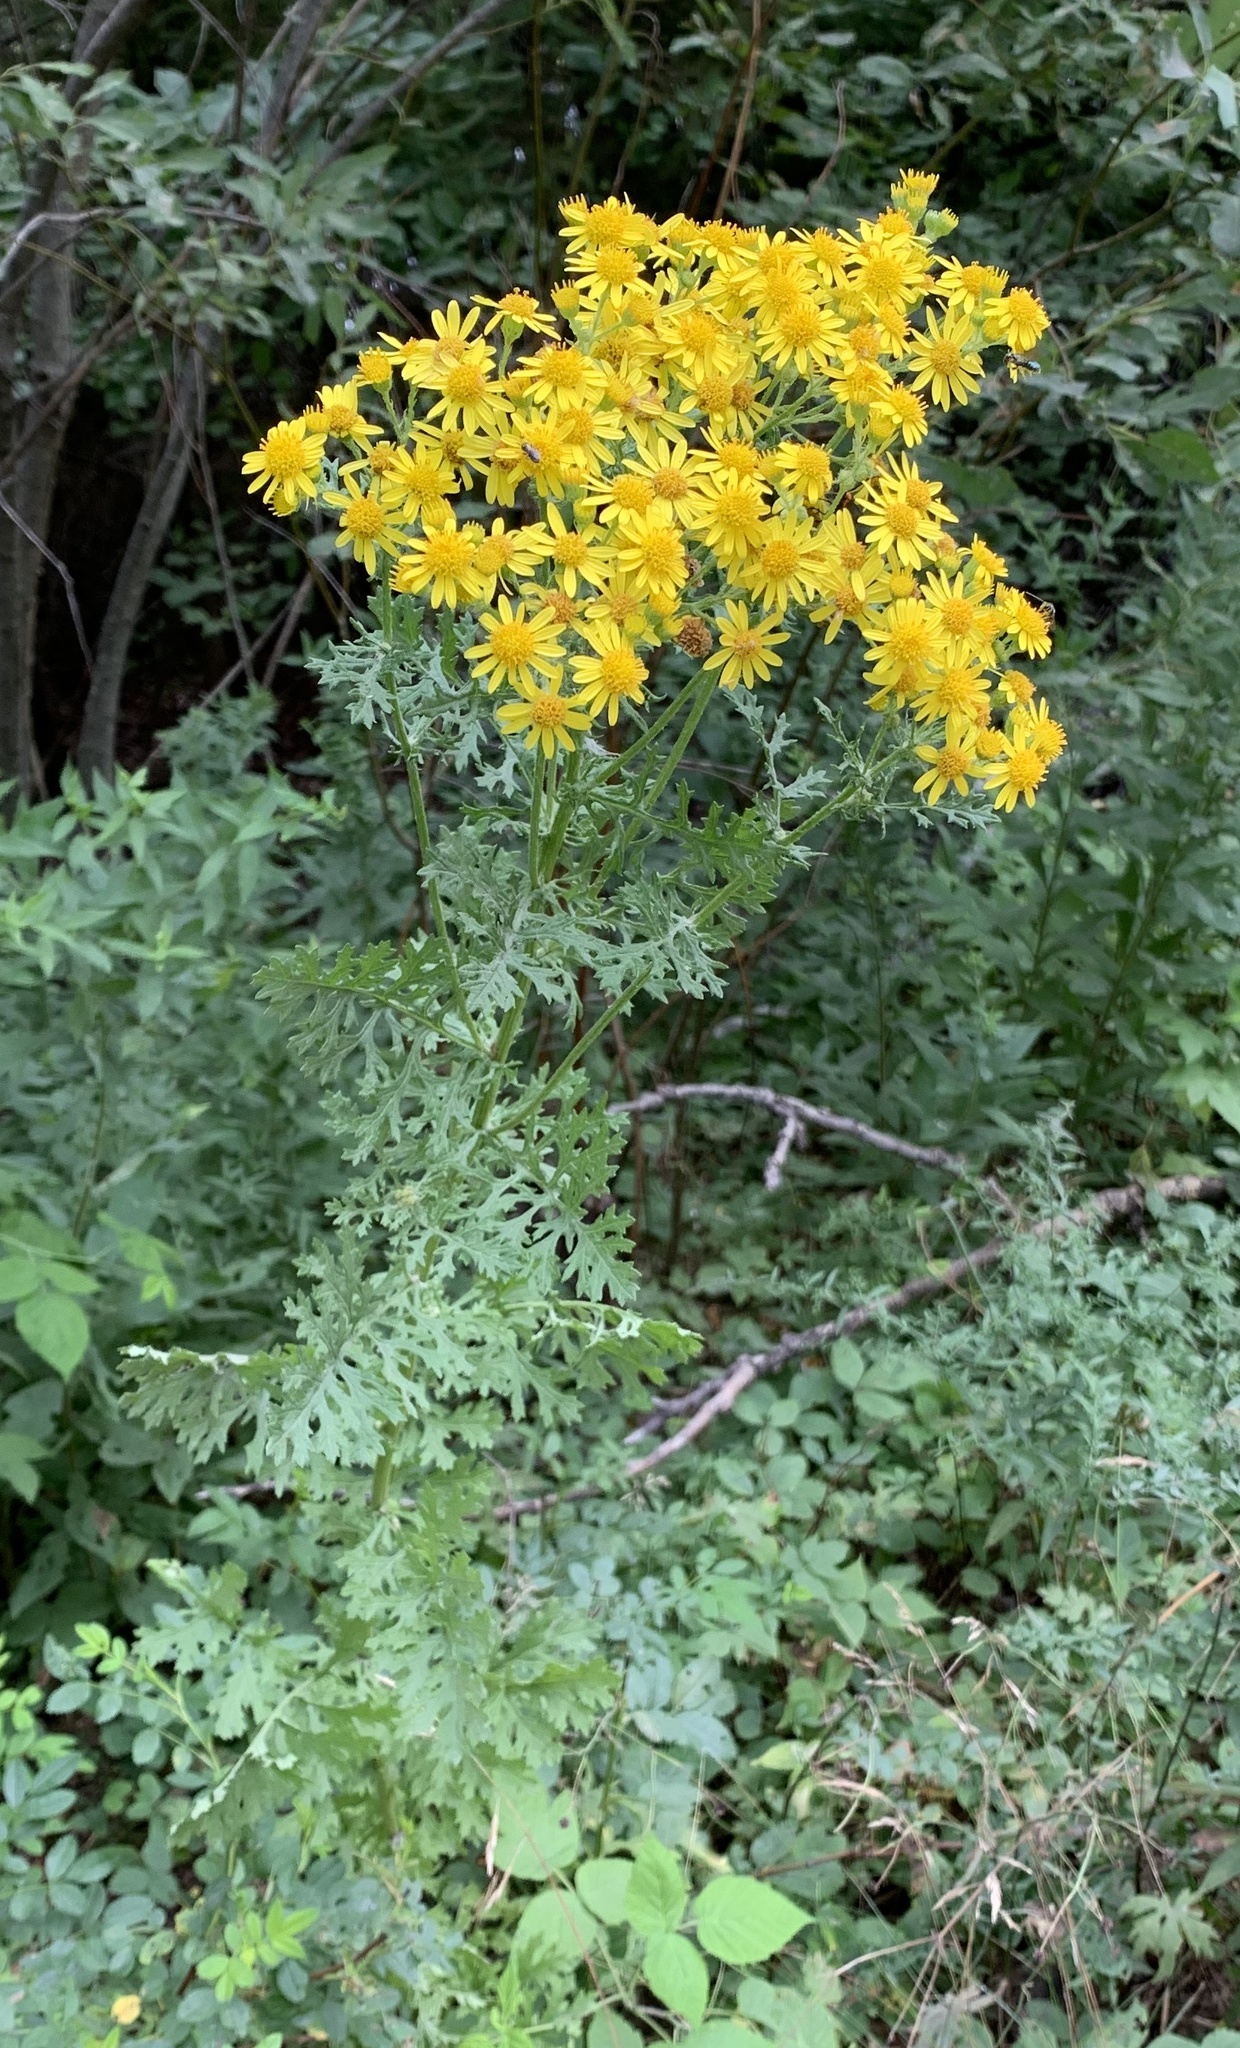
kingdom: Plantae
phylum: Tracheophyta
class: Magnoliopsida
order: Asterales
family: Asteraceae
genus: Jacobaea
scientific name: Jacobaea vulgaris
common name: Stinking willie
